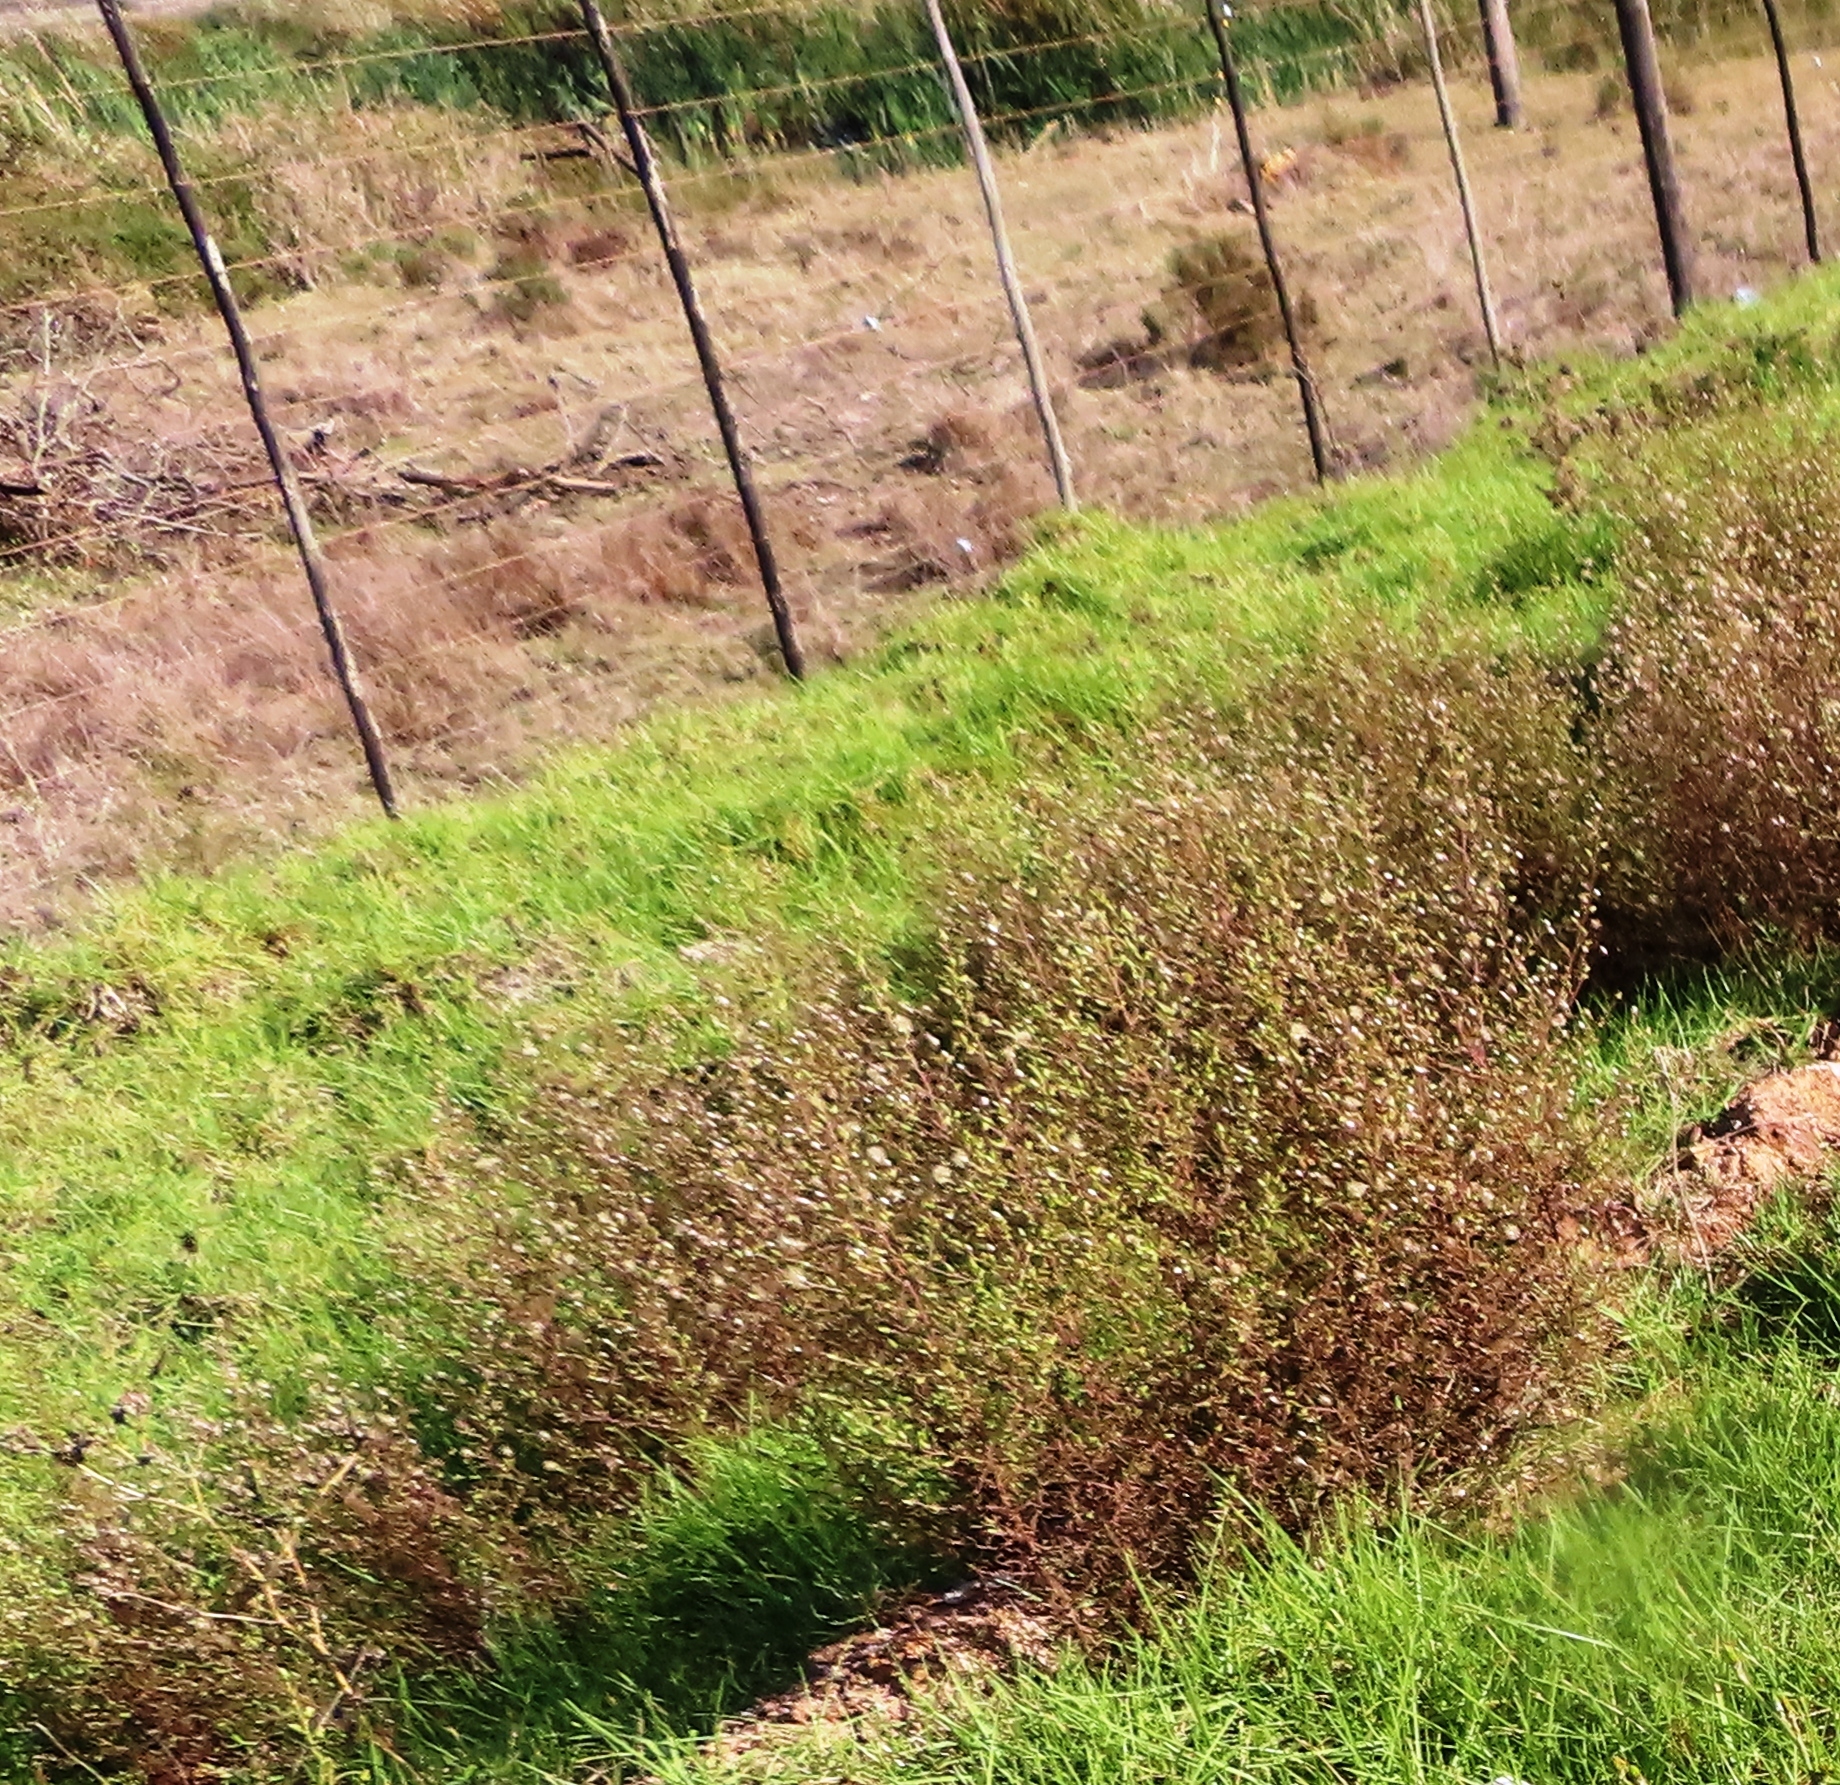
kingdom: Plantae
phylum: Tracheophyta
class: Magnoliopsida
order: Asterales
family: Asteraceae
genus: Dittrichia
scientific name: Dittrichia graveolens
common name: Stinking fleabane
